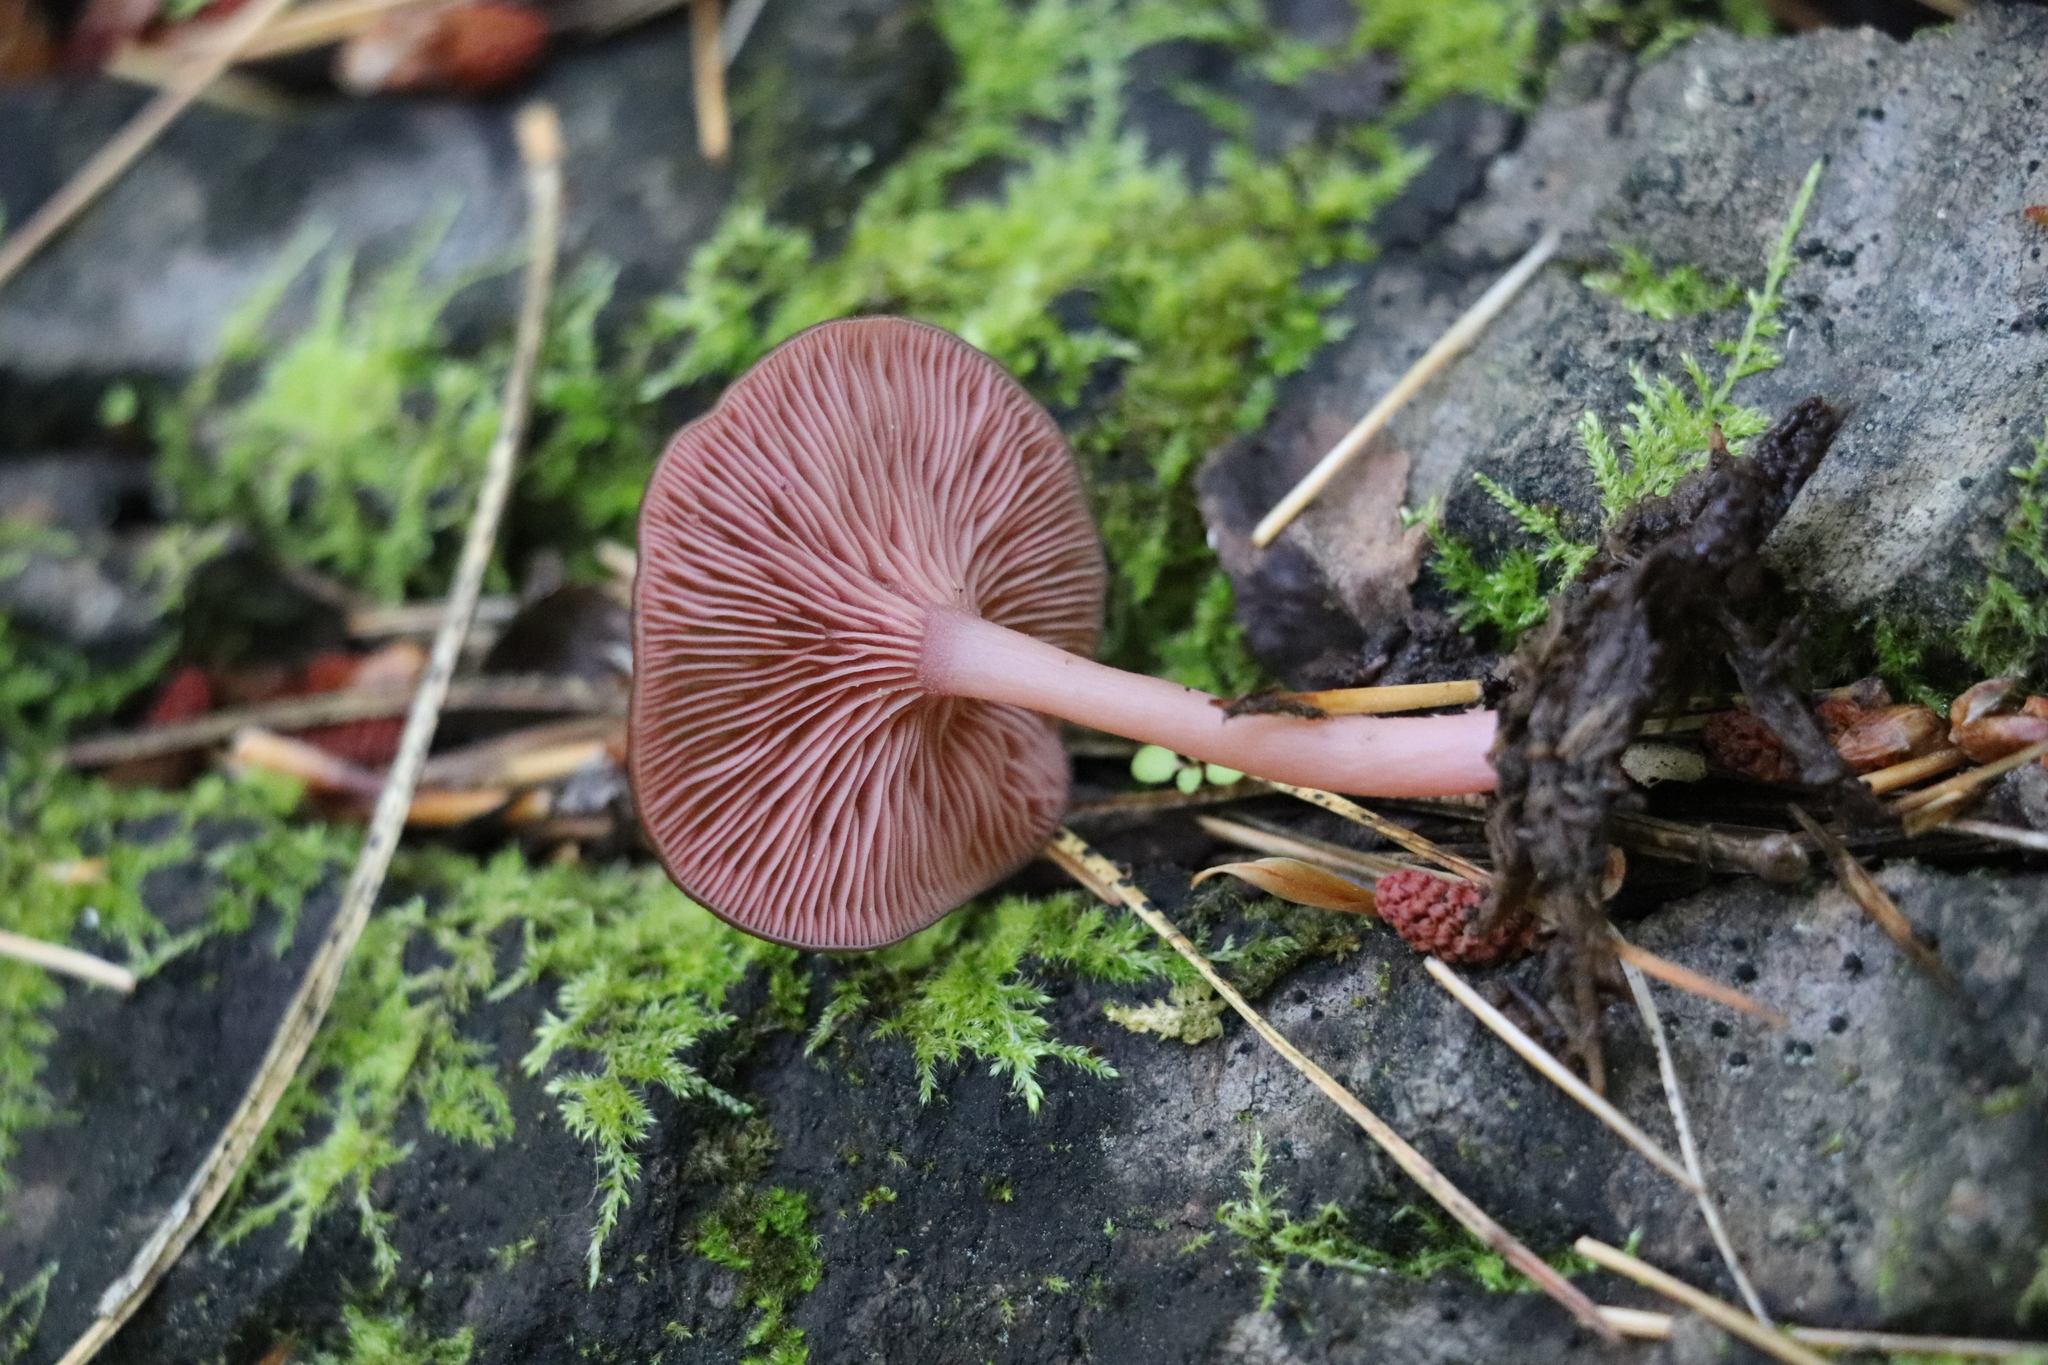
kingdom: Fungi
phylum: Basidiomycota
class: Agaricomycetes
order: Agaricales
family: Hygrophoraceae
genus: Arrhenia
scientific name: Arrhenia discorosea
